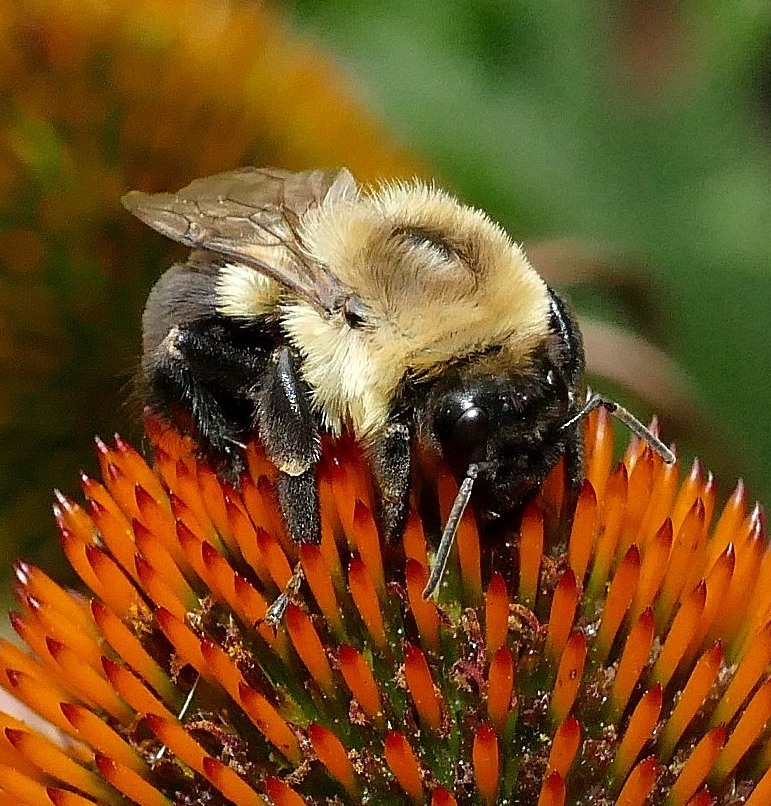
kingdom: Animalia
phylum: Arthropoda
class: Insecta
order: Hymenoptera
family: Apidae
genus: Bombus
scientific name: Bombus impatiens
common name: Common eastern bumble bee
